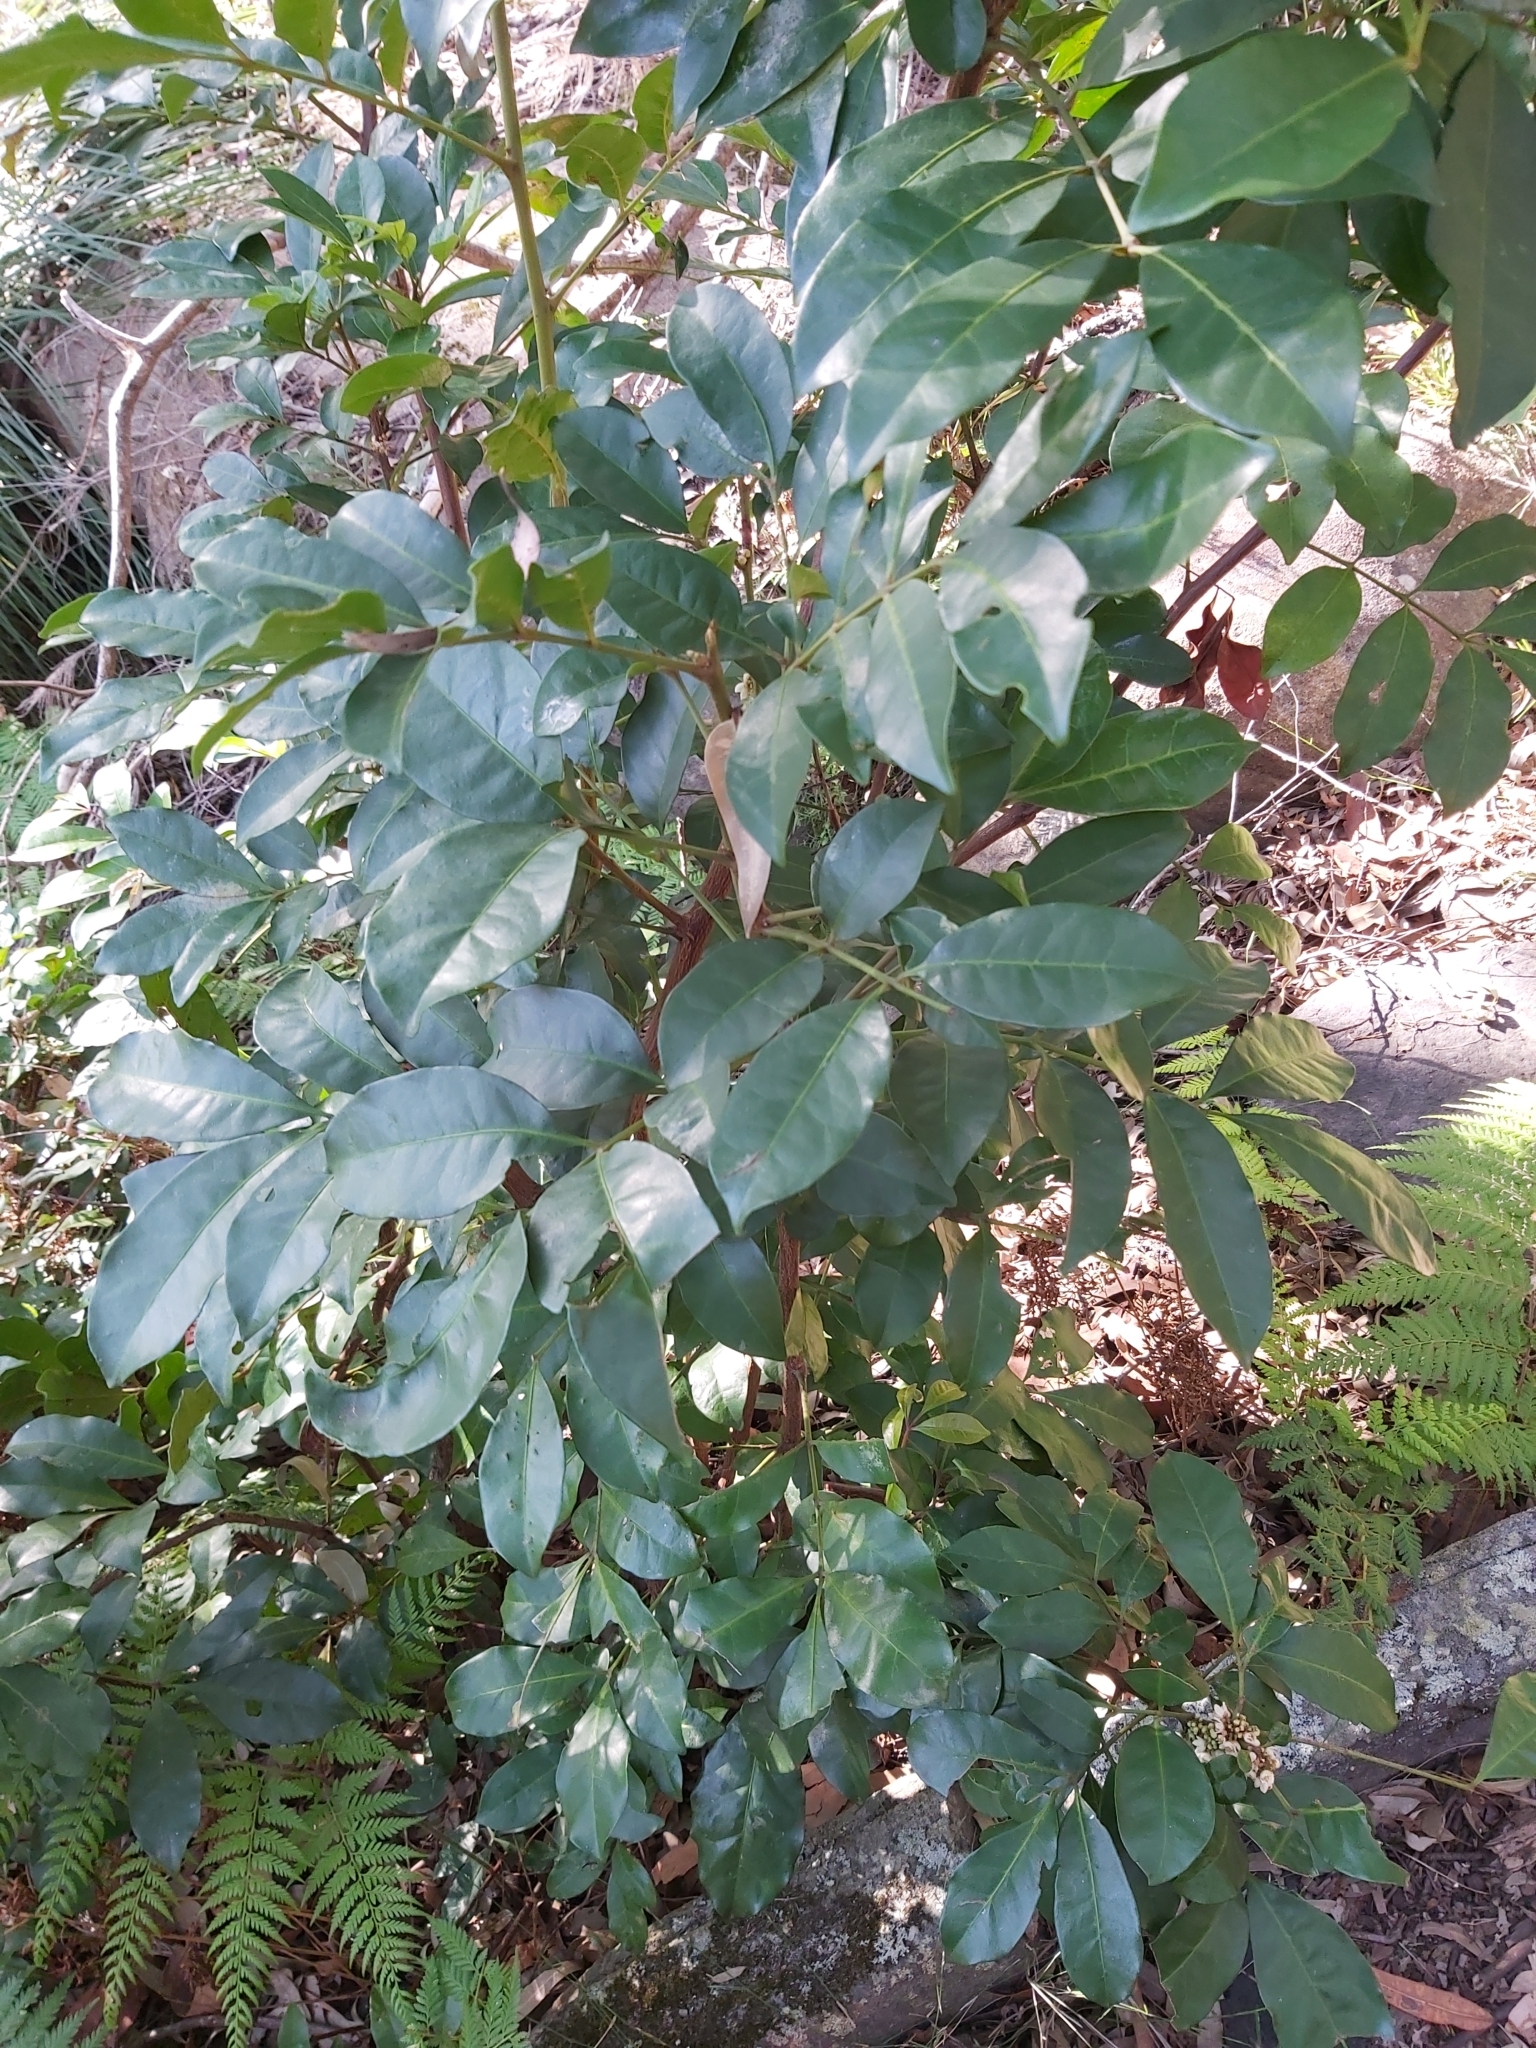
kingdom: Plantae
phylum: Tracheophyta
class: Magnoliopsida
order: Sapindales
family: Meliaceae
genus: Synoum
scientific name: Synoum glandulosum
